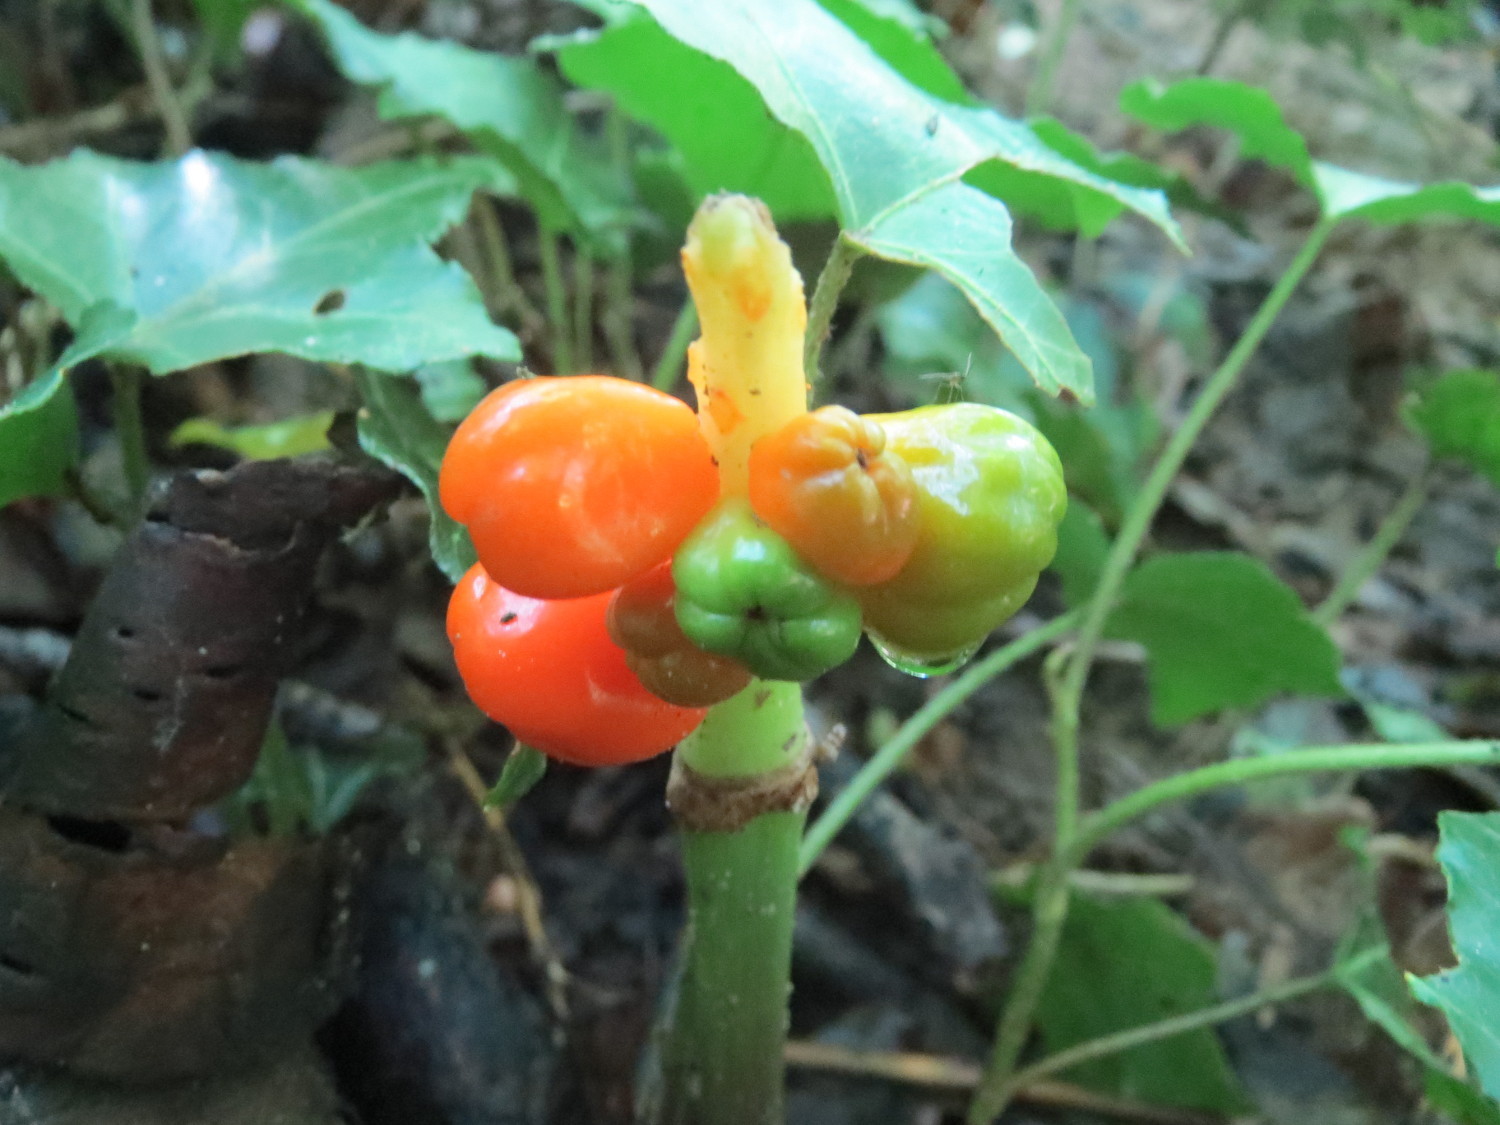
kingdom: Plantae
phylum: Tracheophyta
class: Liliopsida
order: Alismatales
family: Araceae
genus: Arum
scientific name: Arum maculatum
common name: Lords-and-ladies
